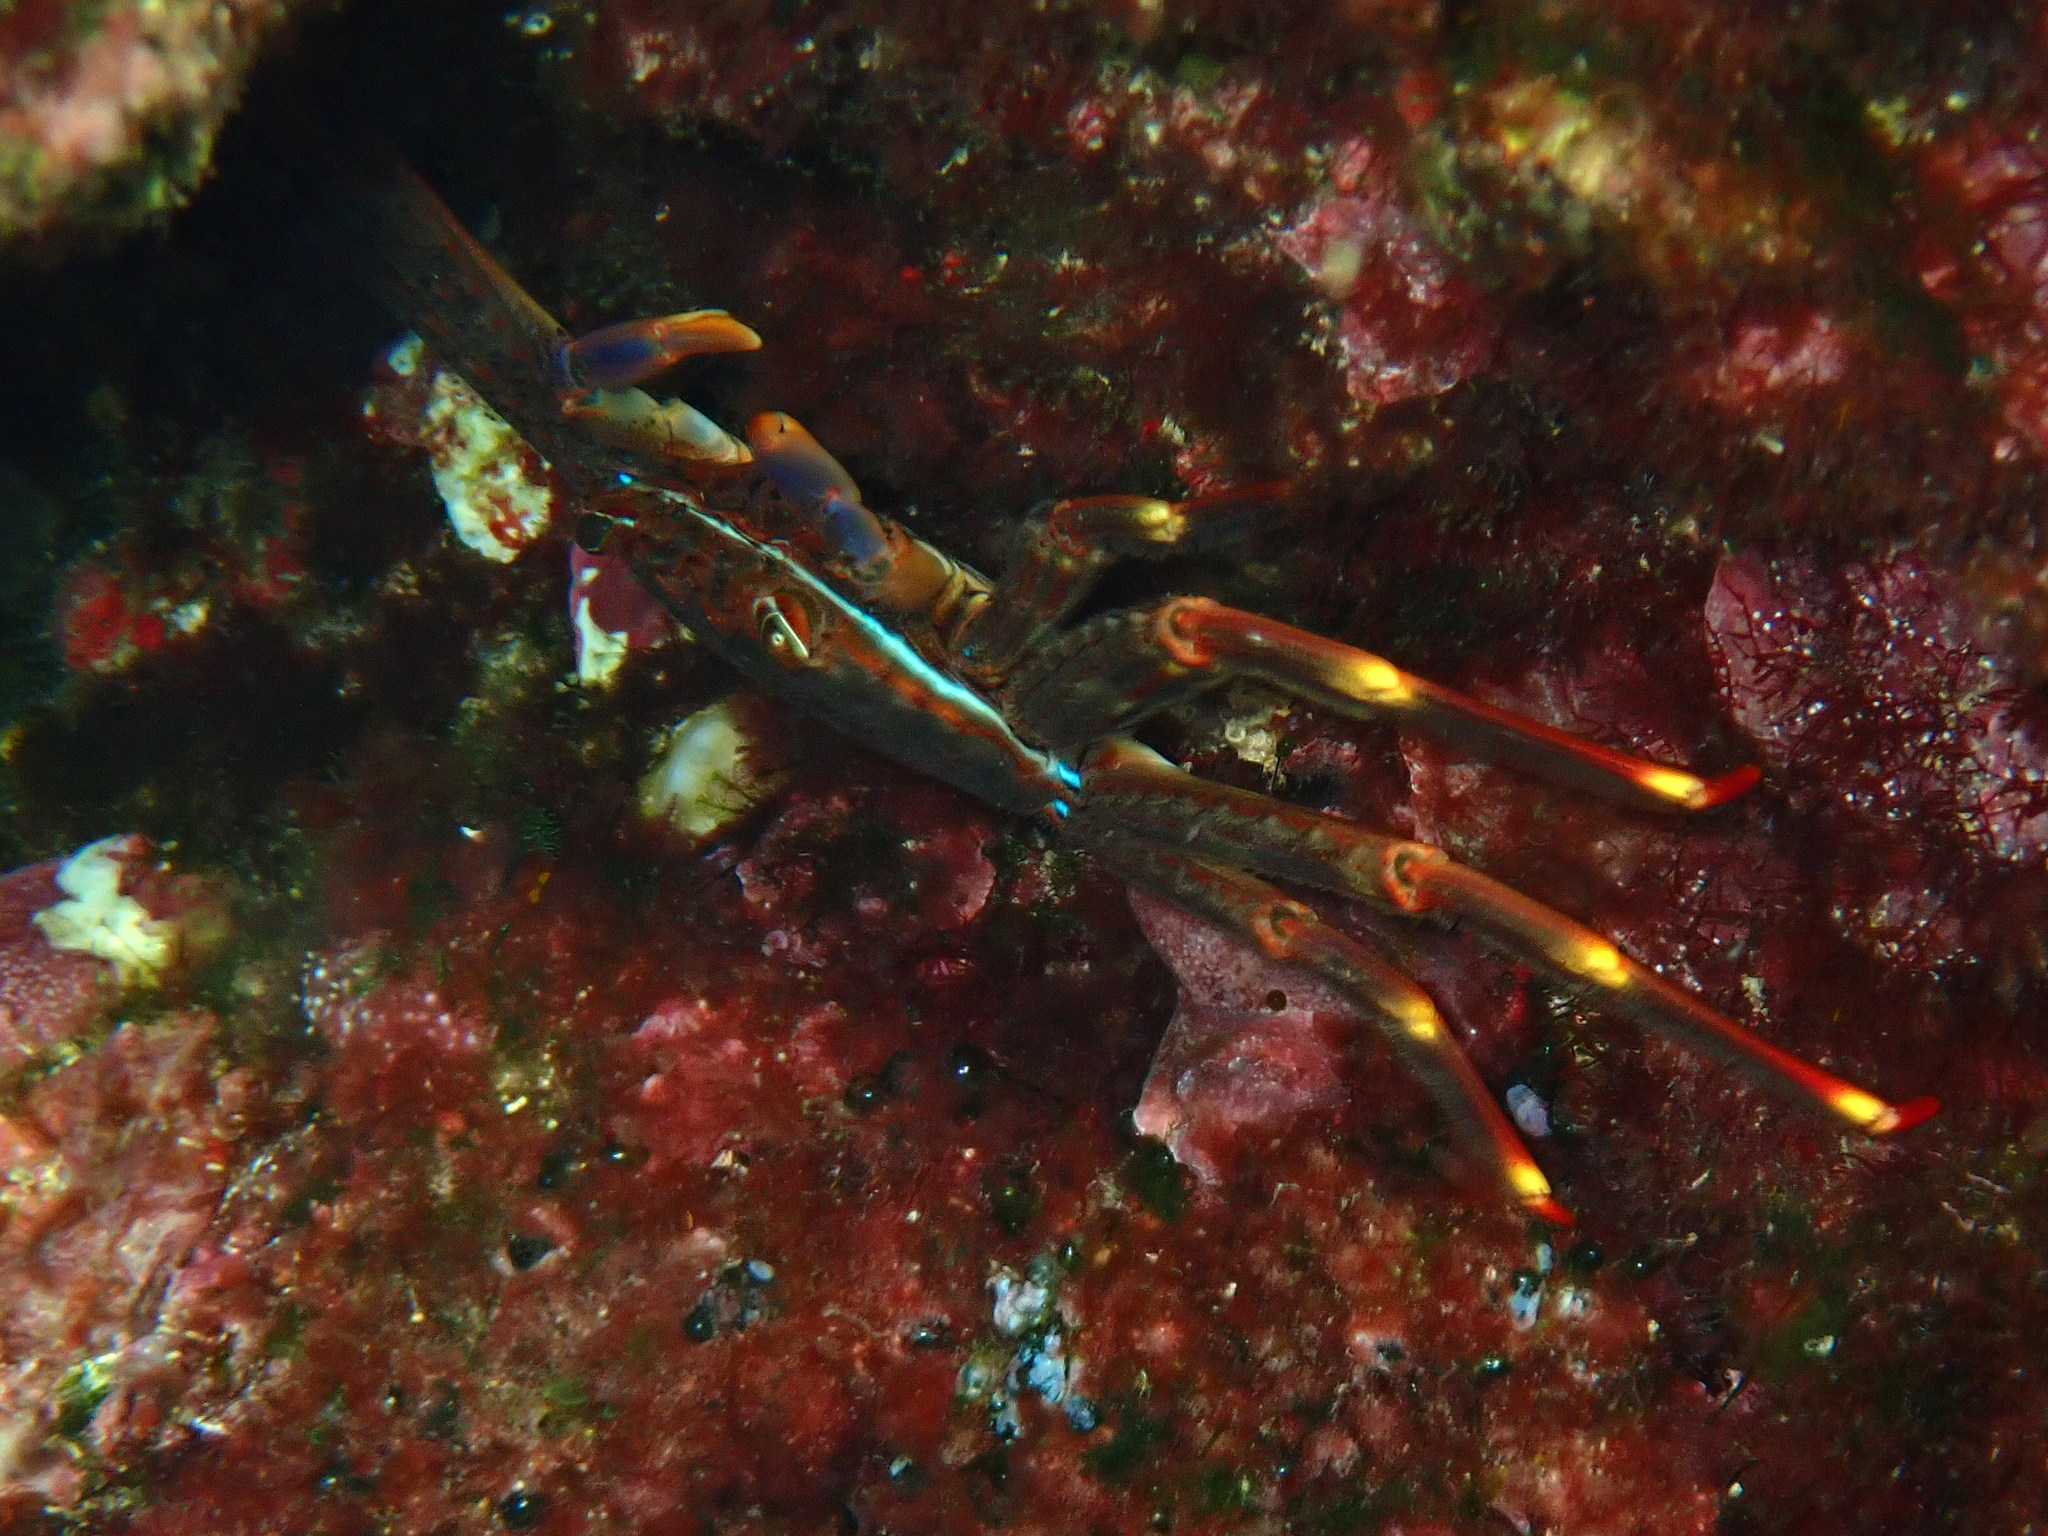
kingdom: Animalia
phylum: Arthropoda
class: Malacostraca
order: Decapoda
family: Percnidae
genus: Percnon
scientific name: Percnon gibbesi
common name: Nimble spray crab
